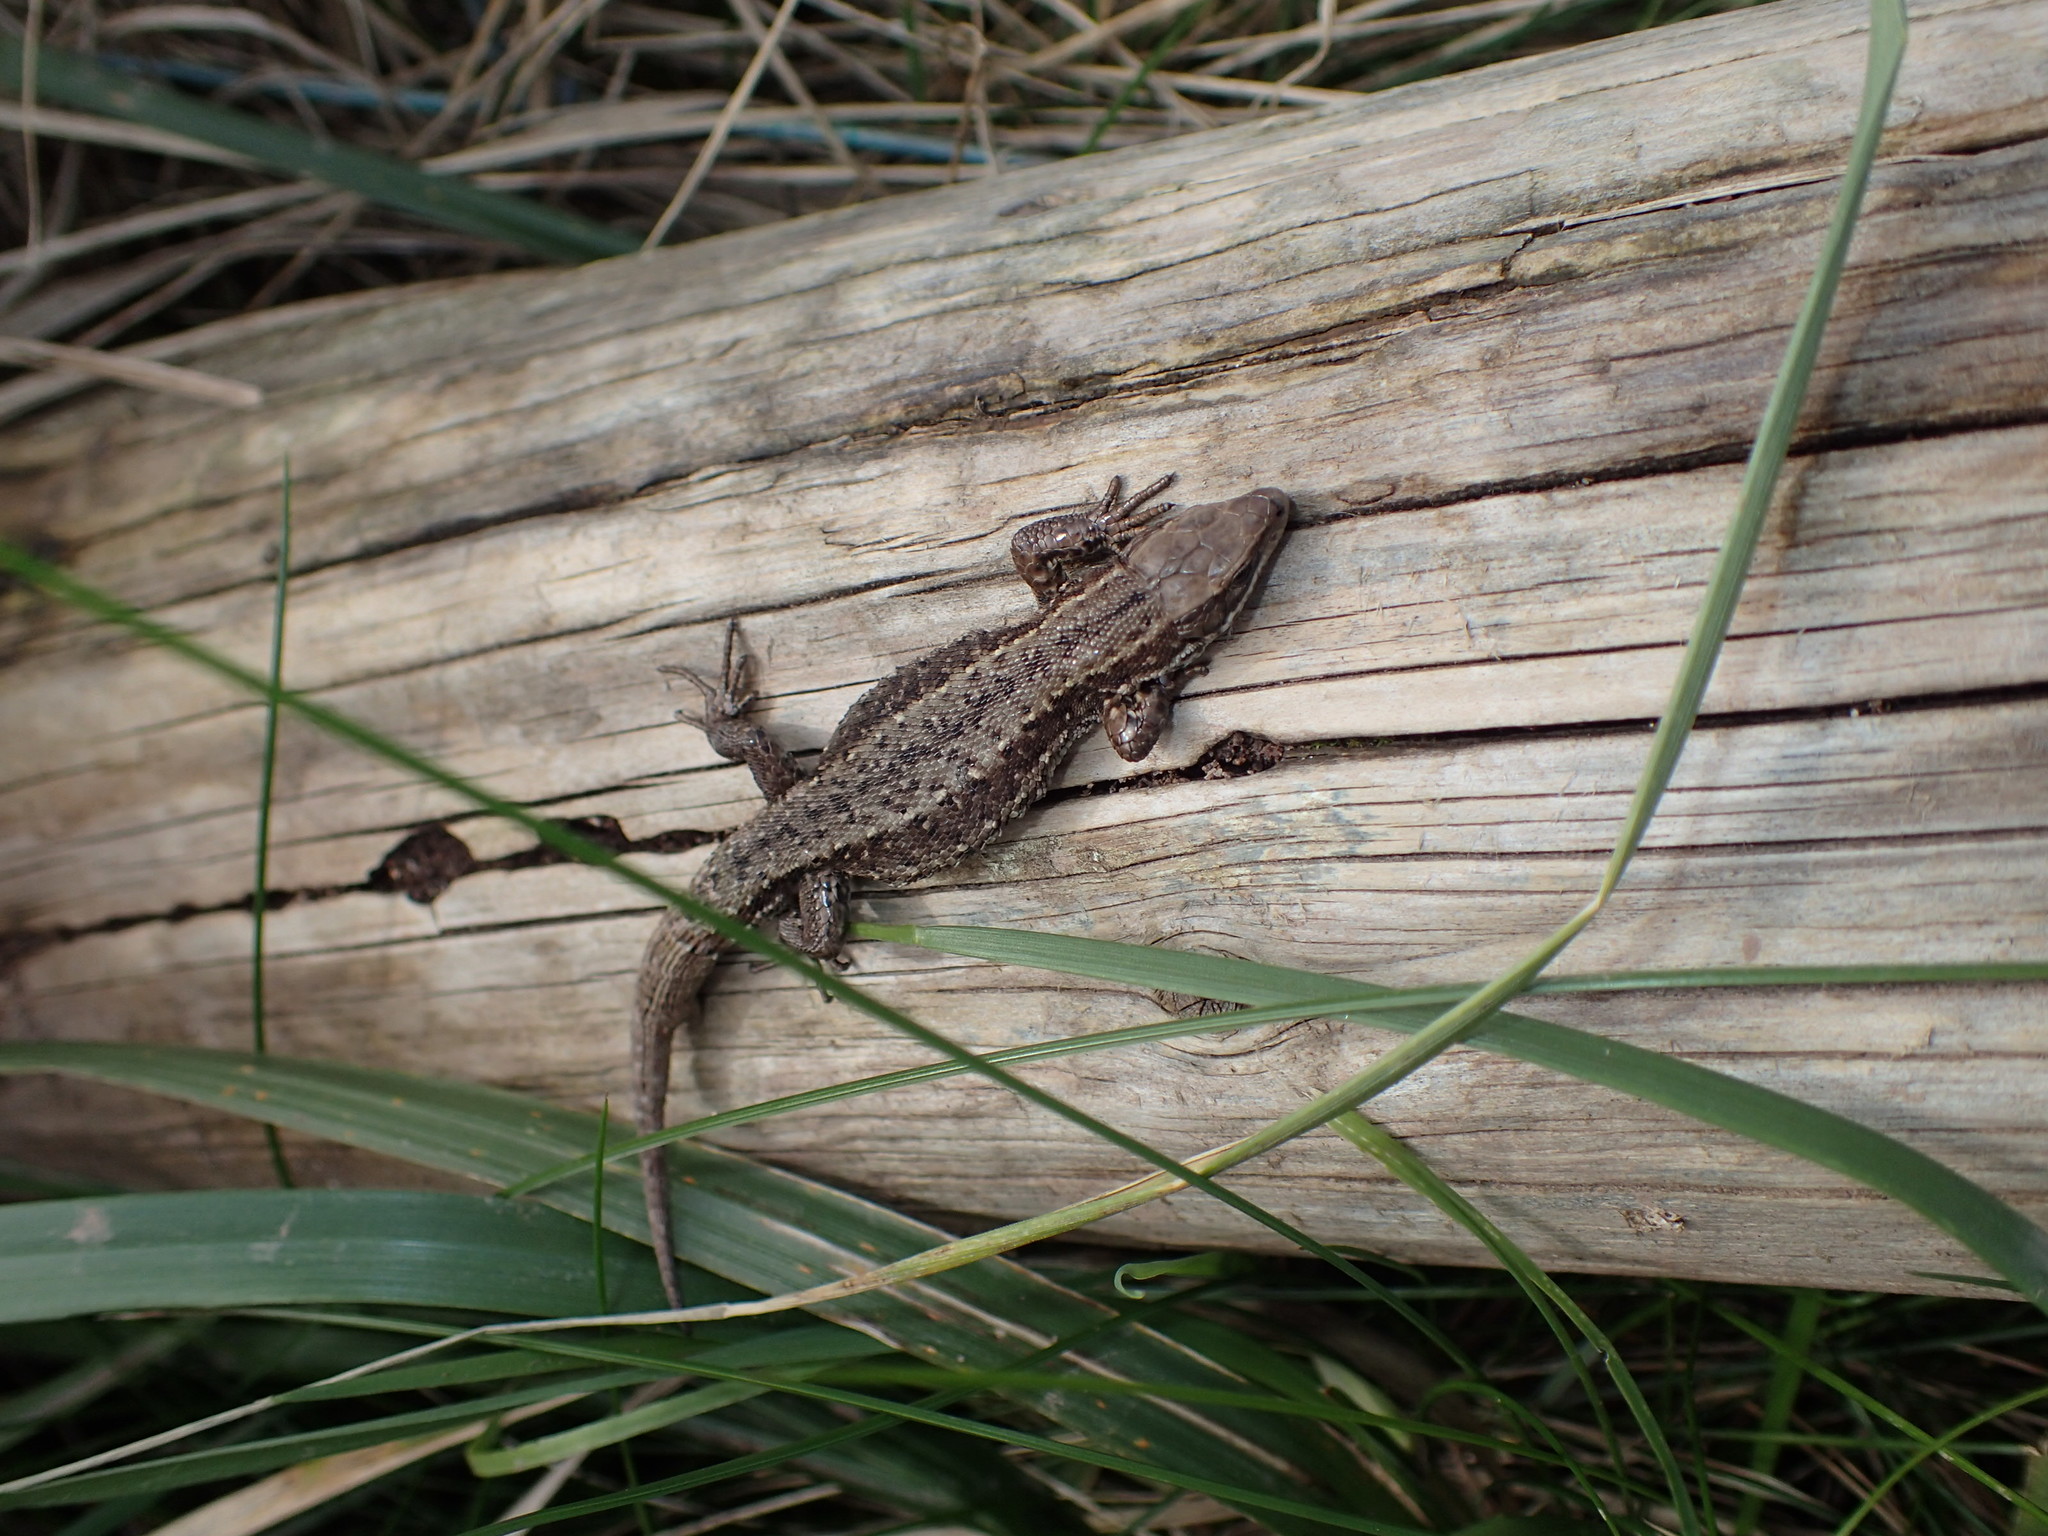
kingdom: Animalia
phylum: Chordata
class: Squamata
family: Lacertidae
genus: Zootoca
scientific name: Zootoca vivipara
